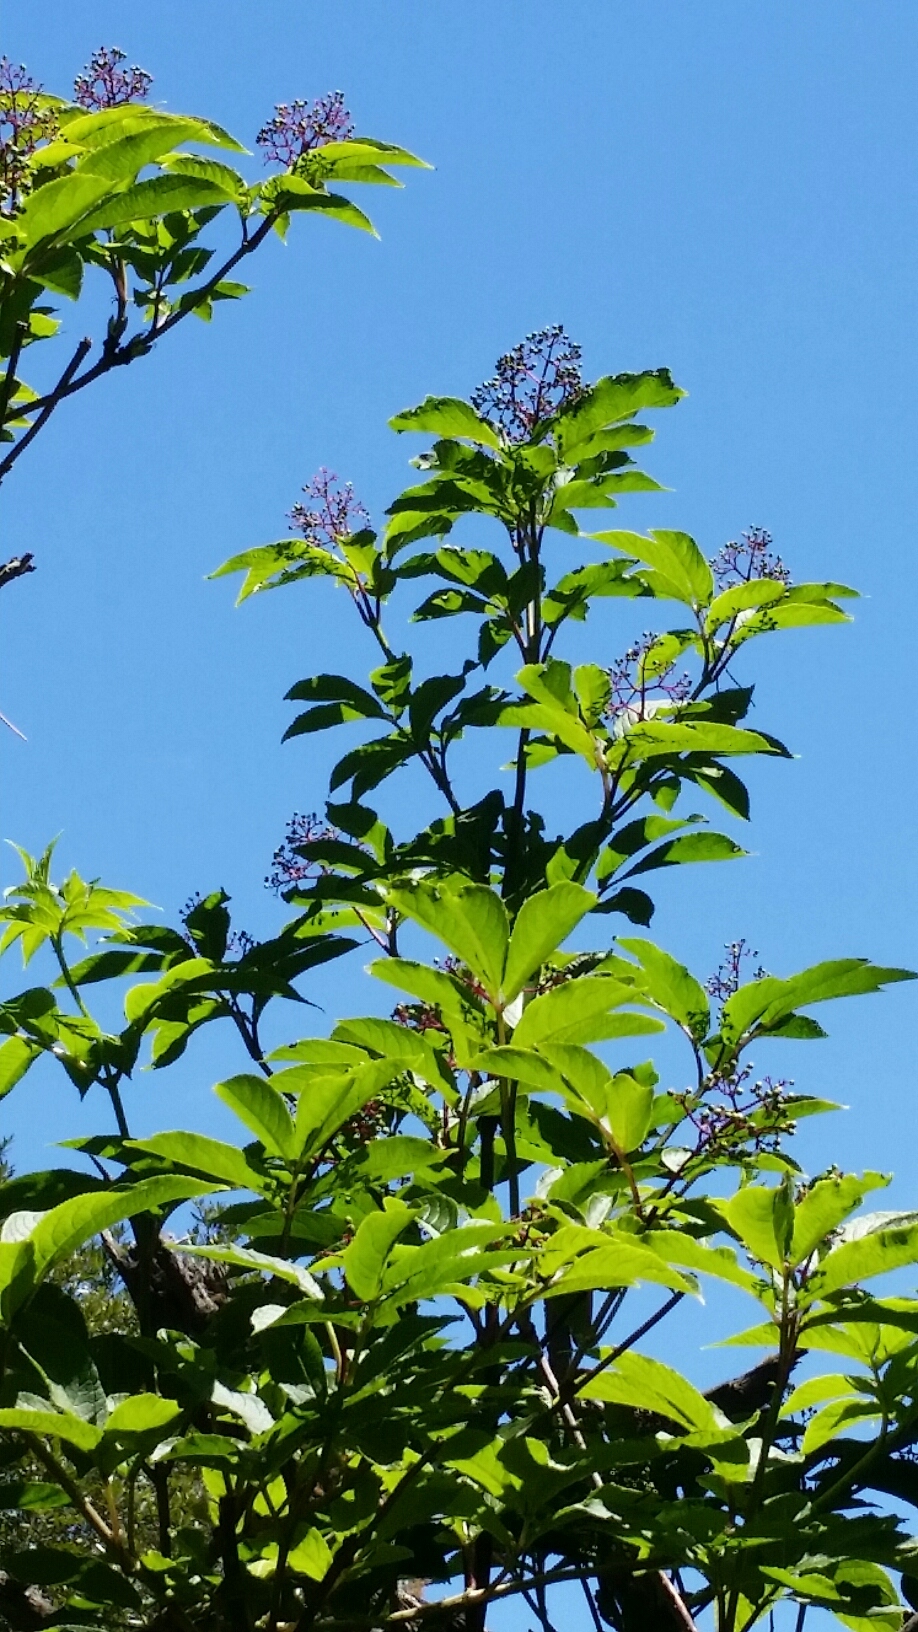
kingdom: Plantae
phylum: Tracheophyta
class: Magnoliopsida
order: Dipsacales
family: Viburnaceae
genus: Sambucus
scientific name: Sambucus racemosa
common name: Red-berried elder
